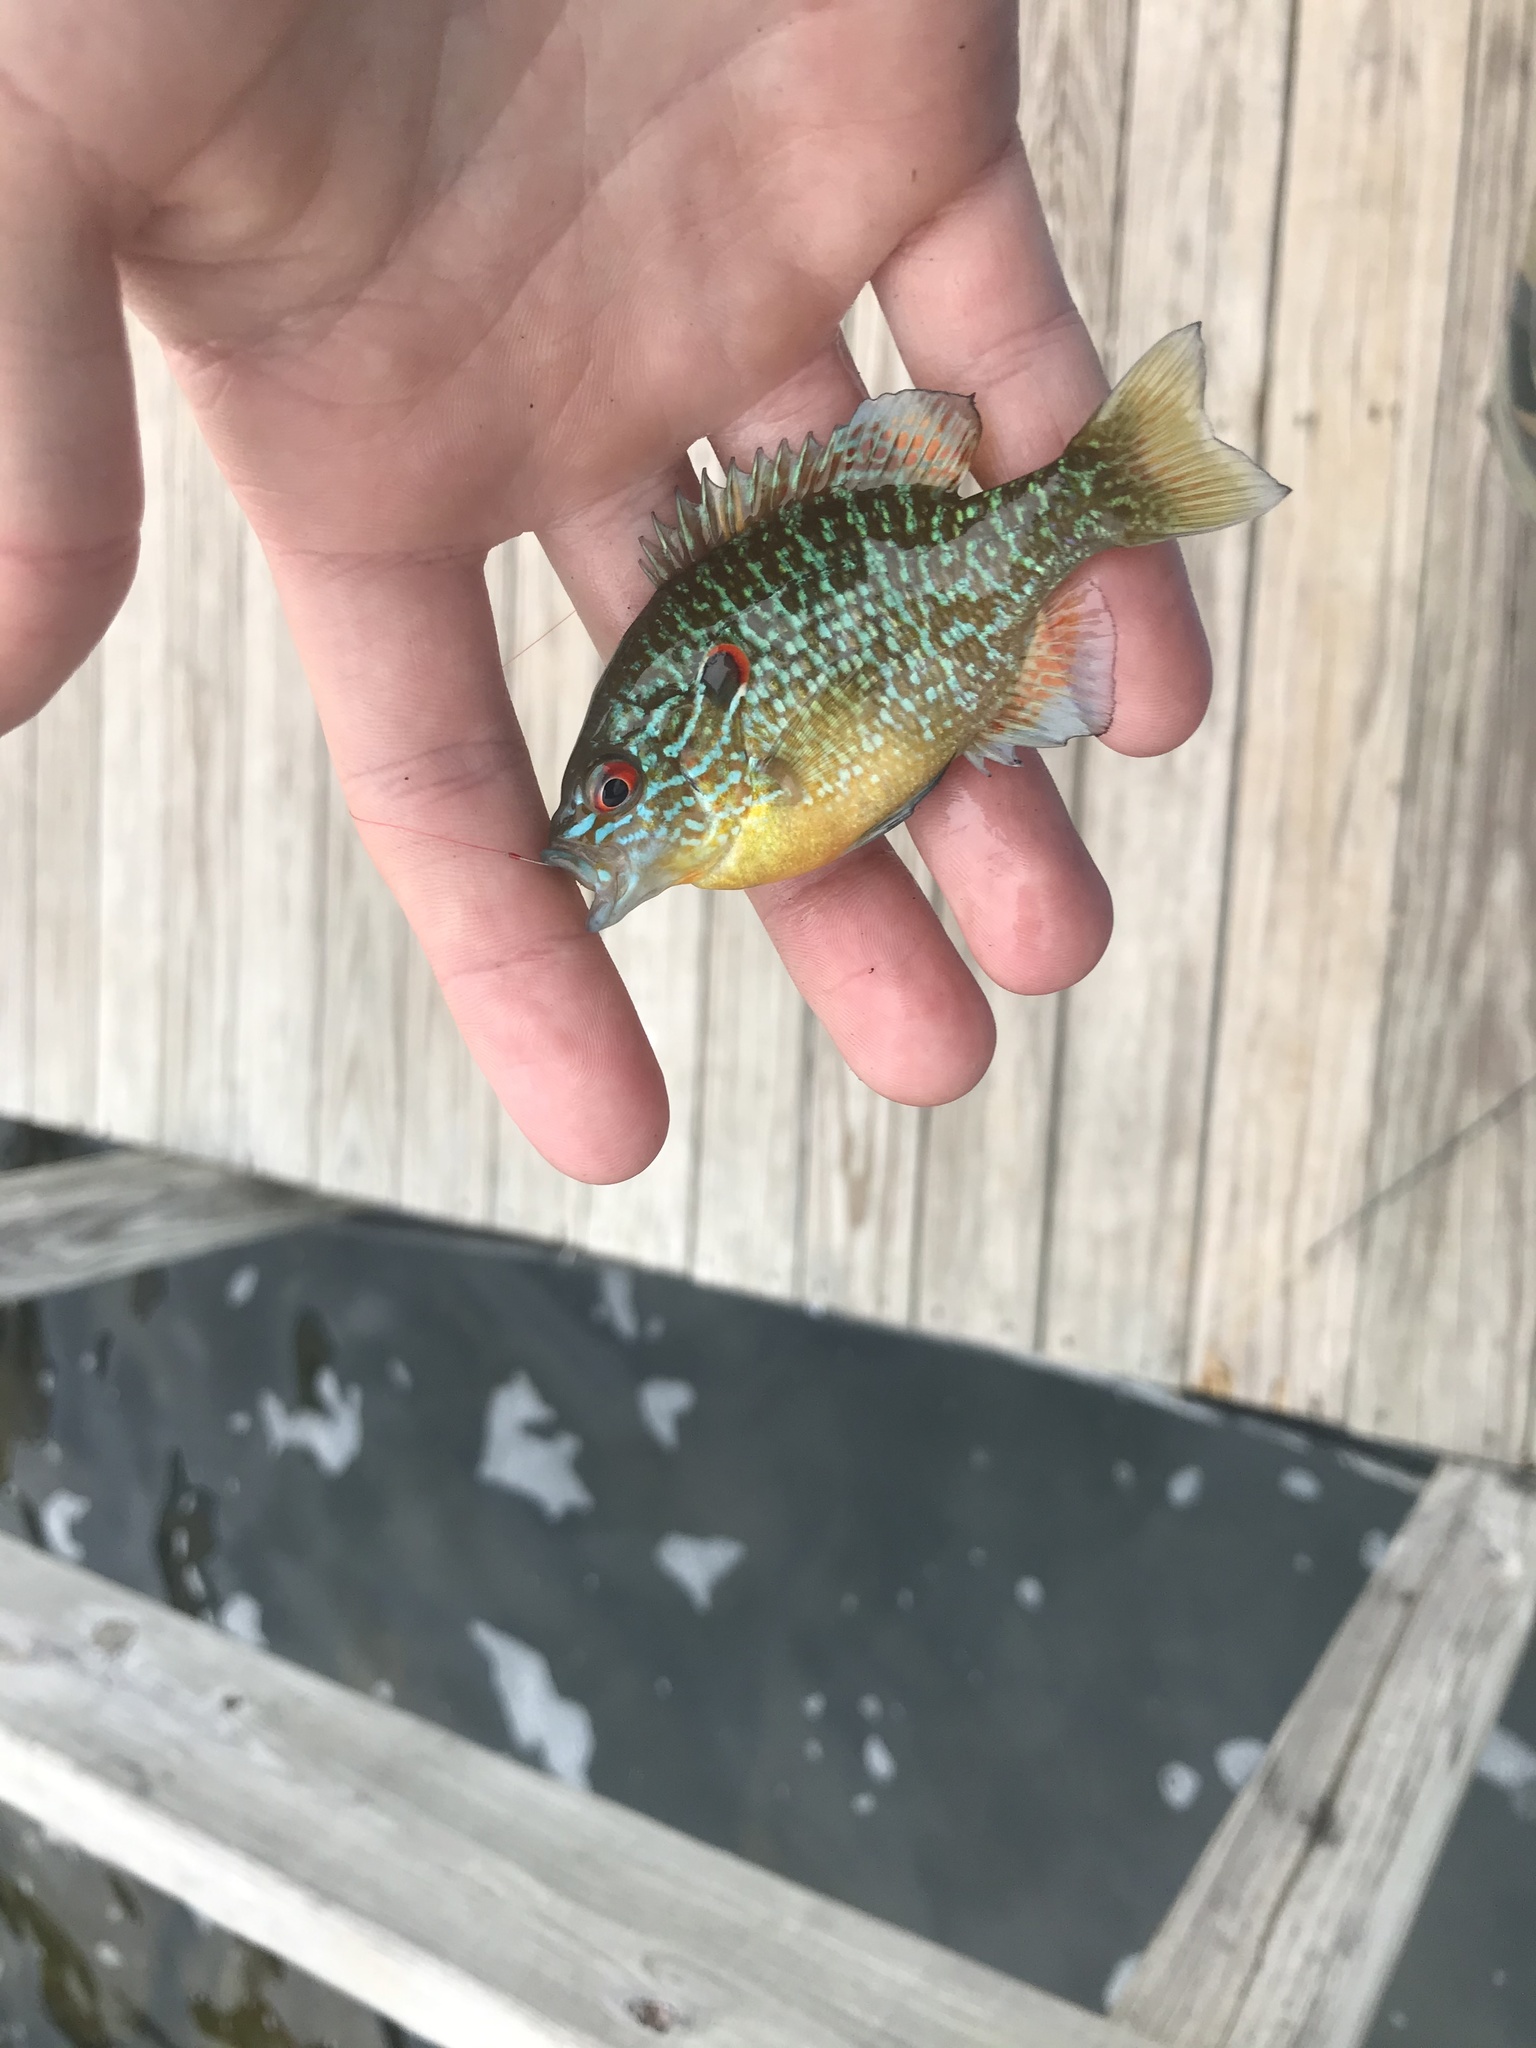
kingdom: Animalia
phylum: Chordata
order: Perciformes
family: Centrarchidae
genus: Lepomis
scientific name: Lepomis peltastes
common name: Northern sunfish
